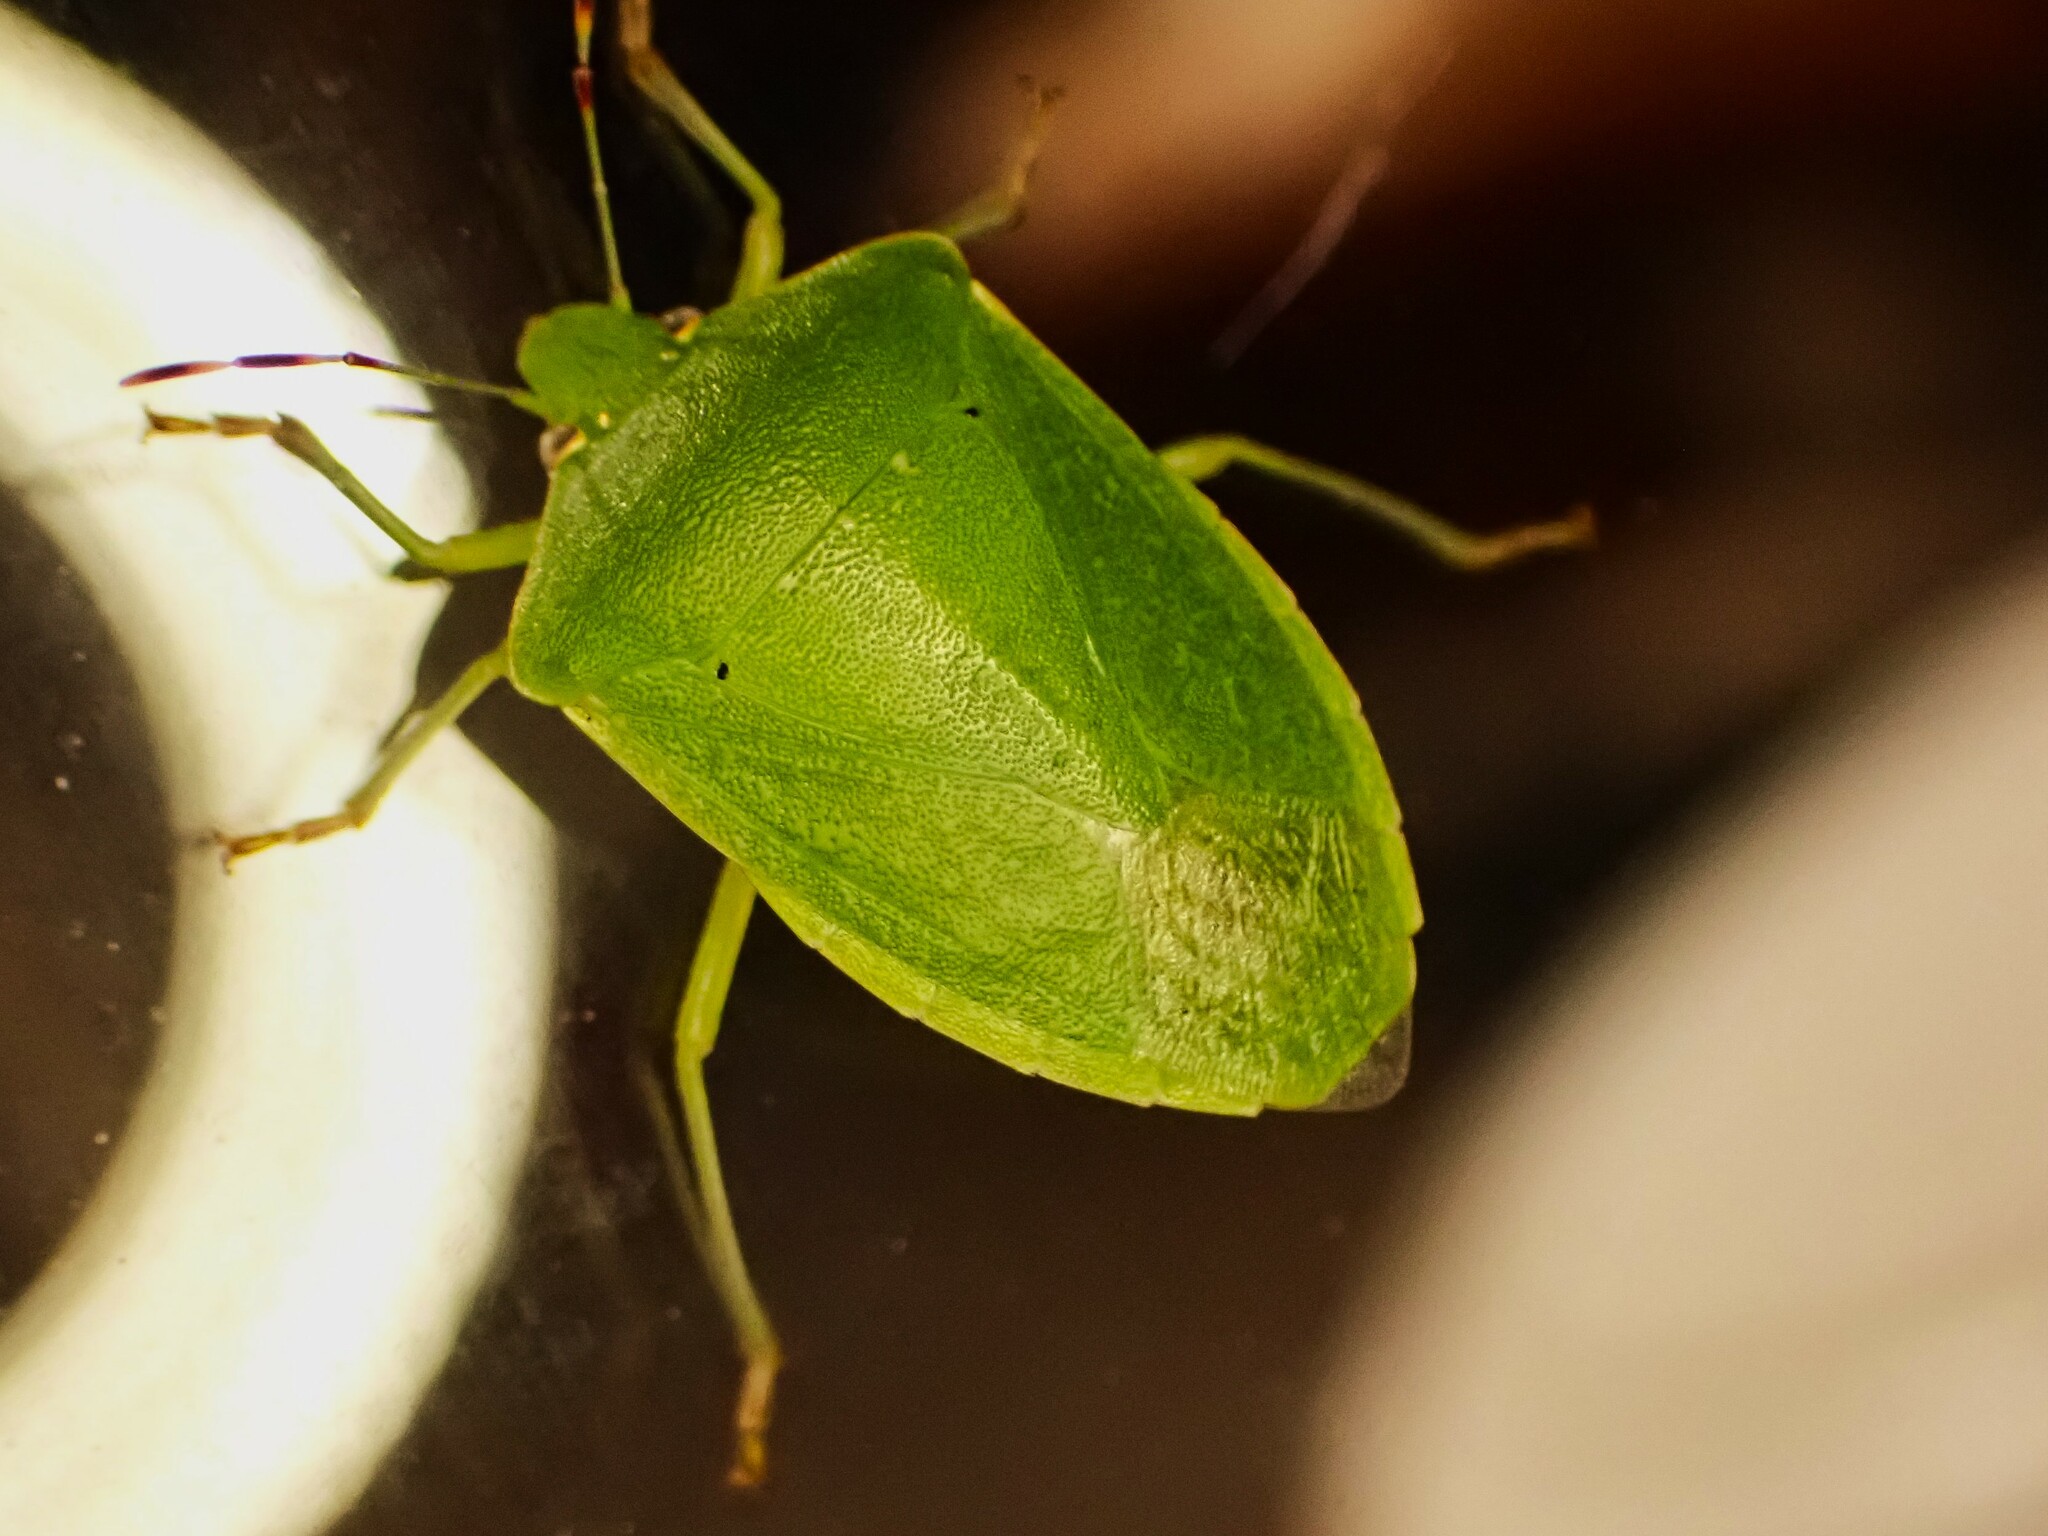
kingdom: Animalia
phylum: Arthropoda
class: Insecta
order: Hemiptera
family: Pentatomidae
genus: Nezara
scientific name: Nezara viridula
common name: Southern green stink bug
